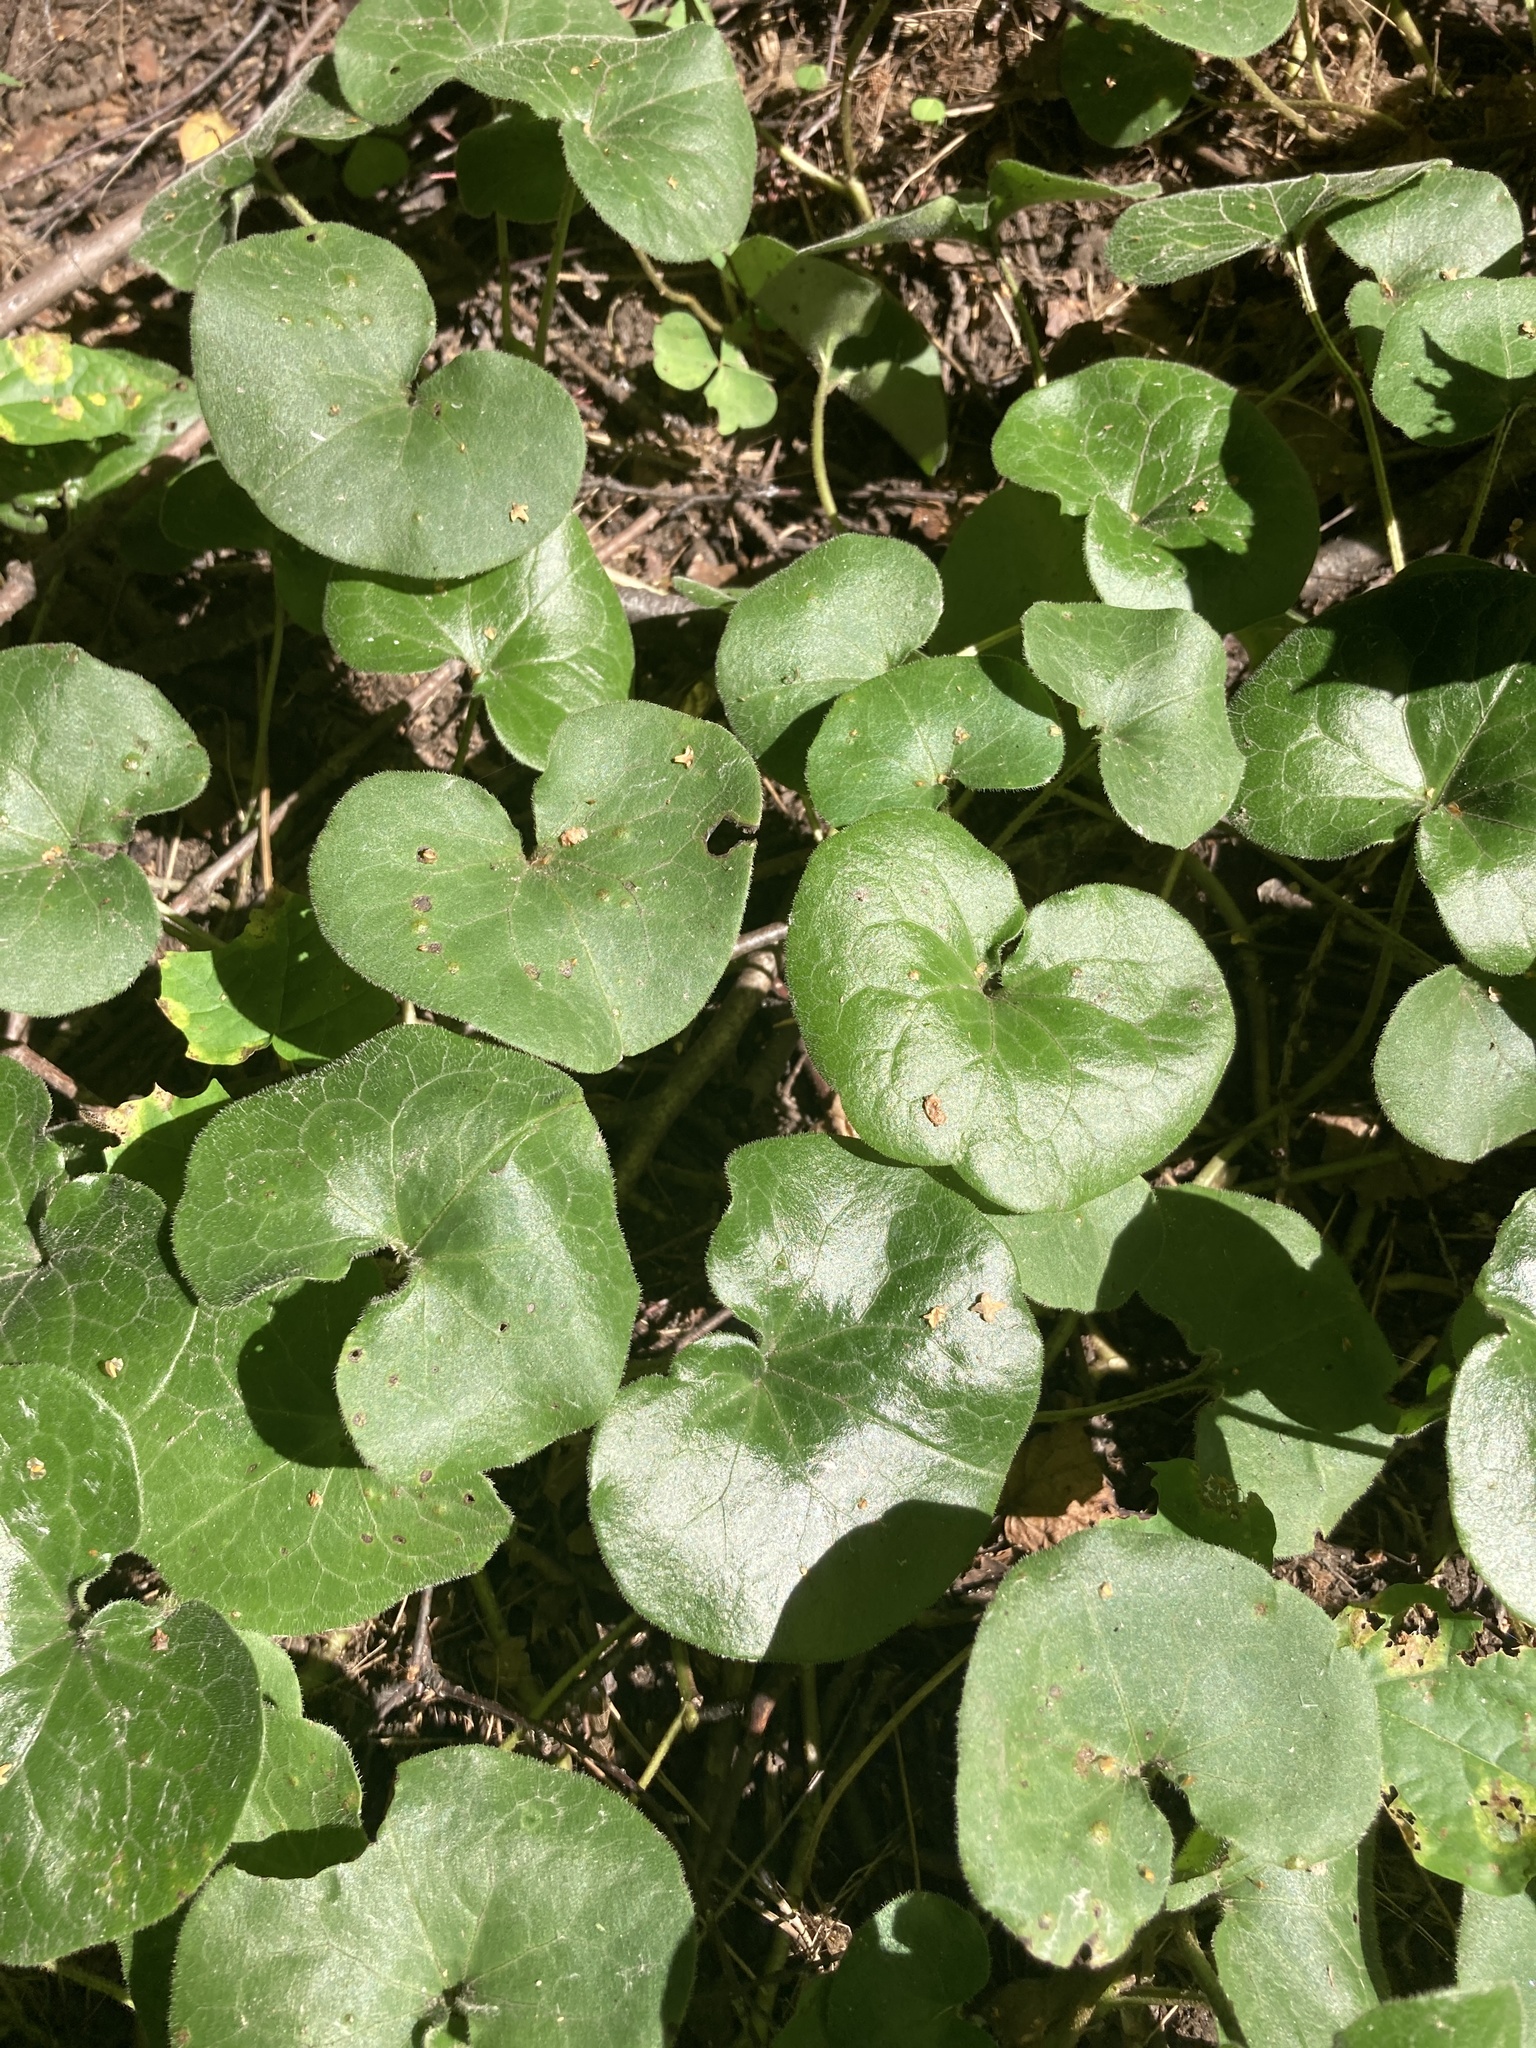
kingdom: Plantae
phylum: Tracheophyta
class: Magnoliopsida
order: Piperales
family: Aristolochiaceae
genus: Asarum
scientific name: Asarum europaeum
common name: Asarabacca
